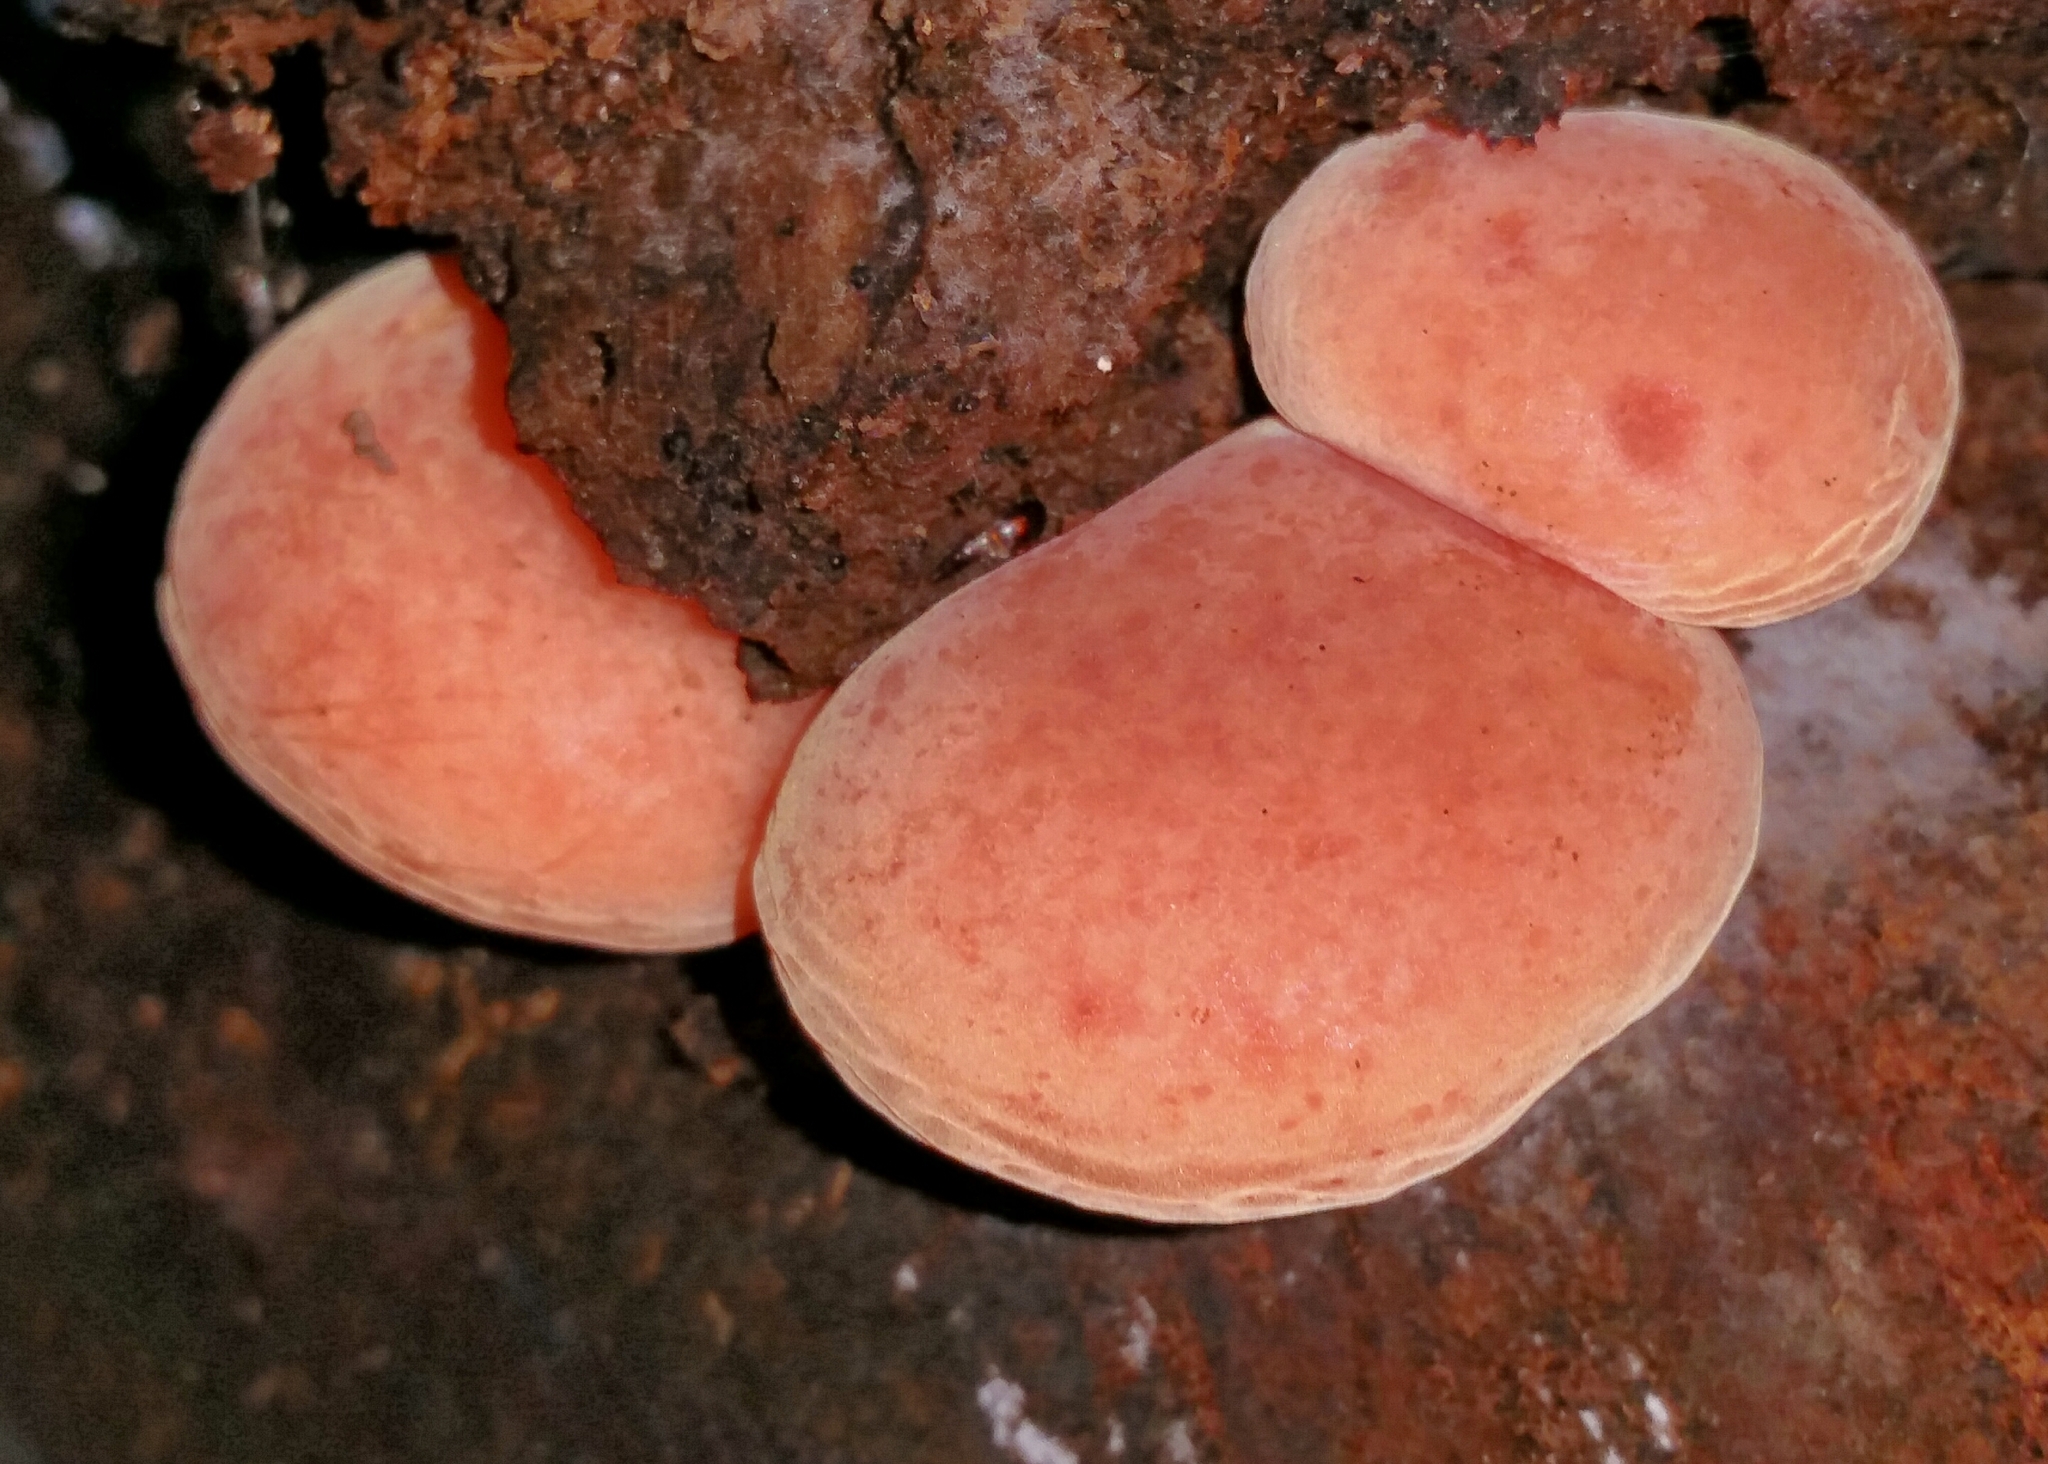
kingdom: Fungi
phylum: Basidiomycota
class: Agaricomycetes
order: Agaricales
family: Physalacriaceae
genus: Rhodotus
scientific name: Rhodotus palmatus
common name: Wrinkled peach
